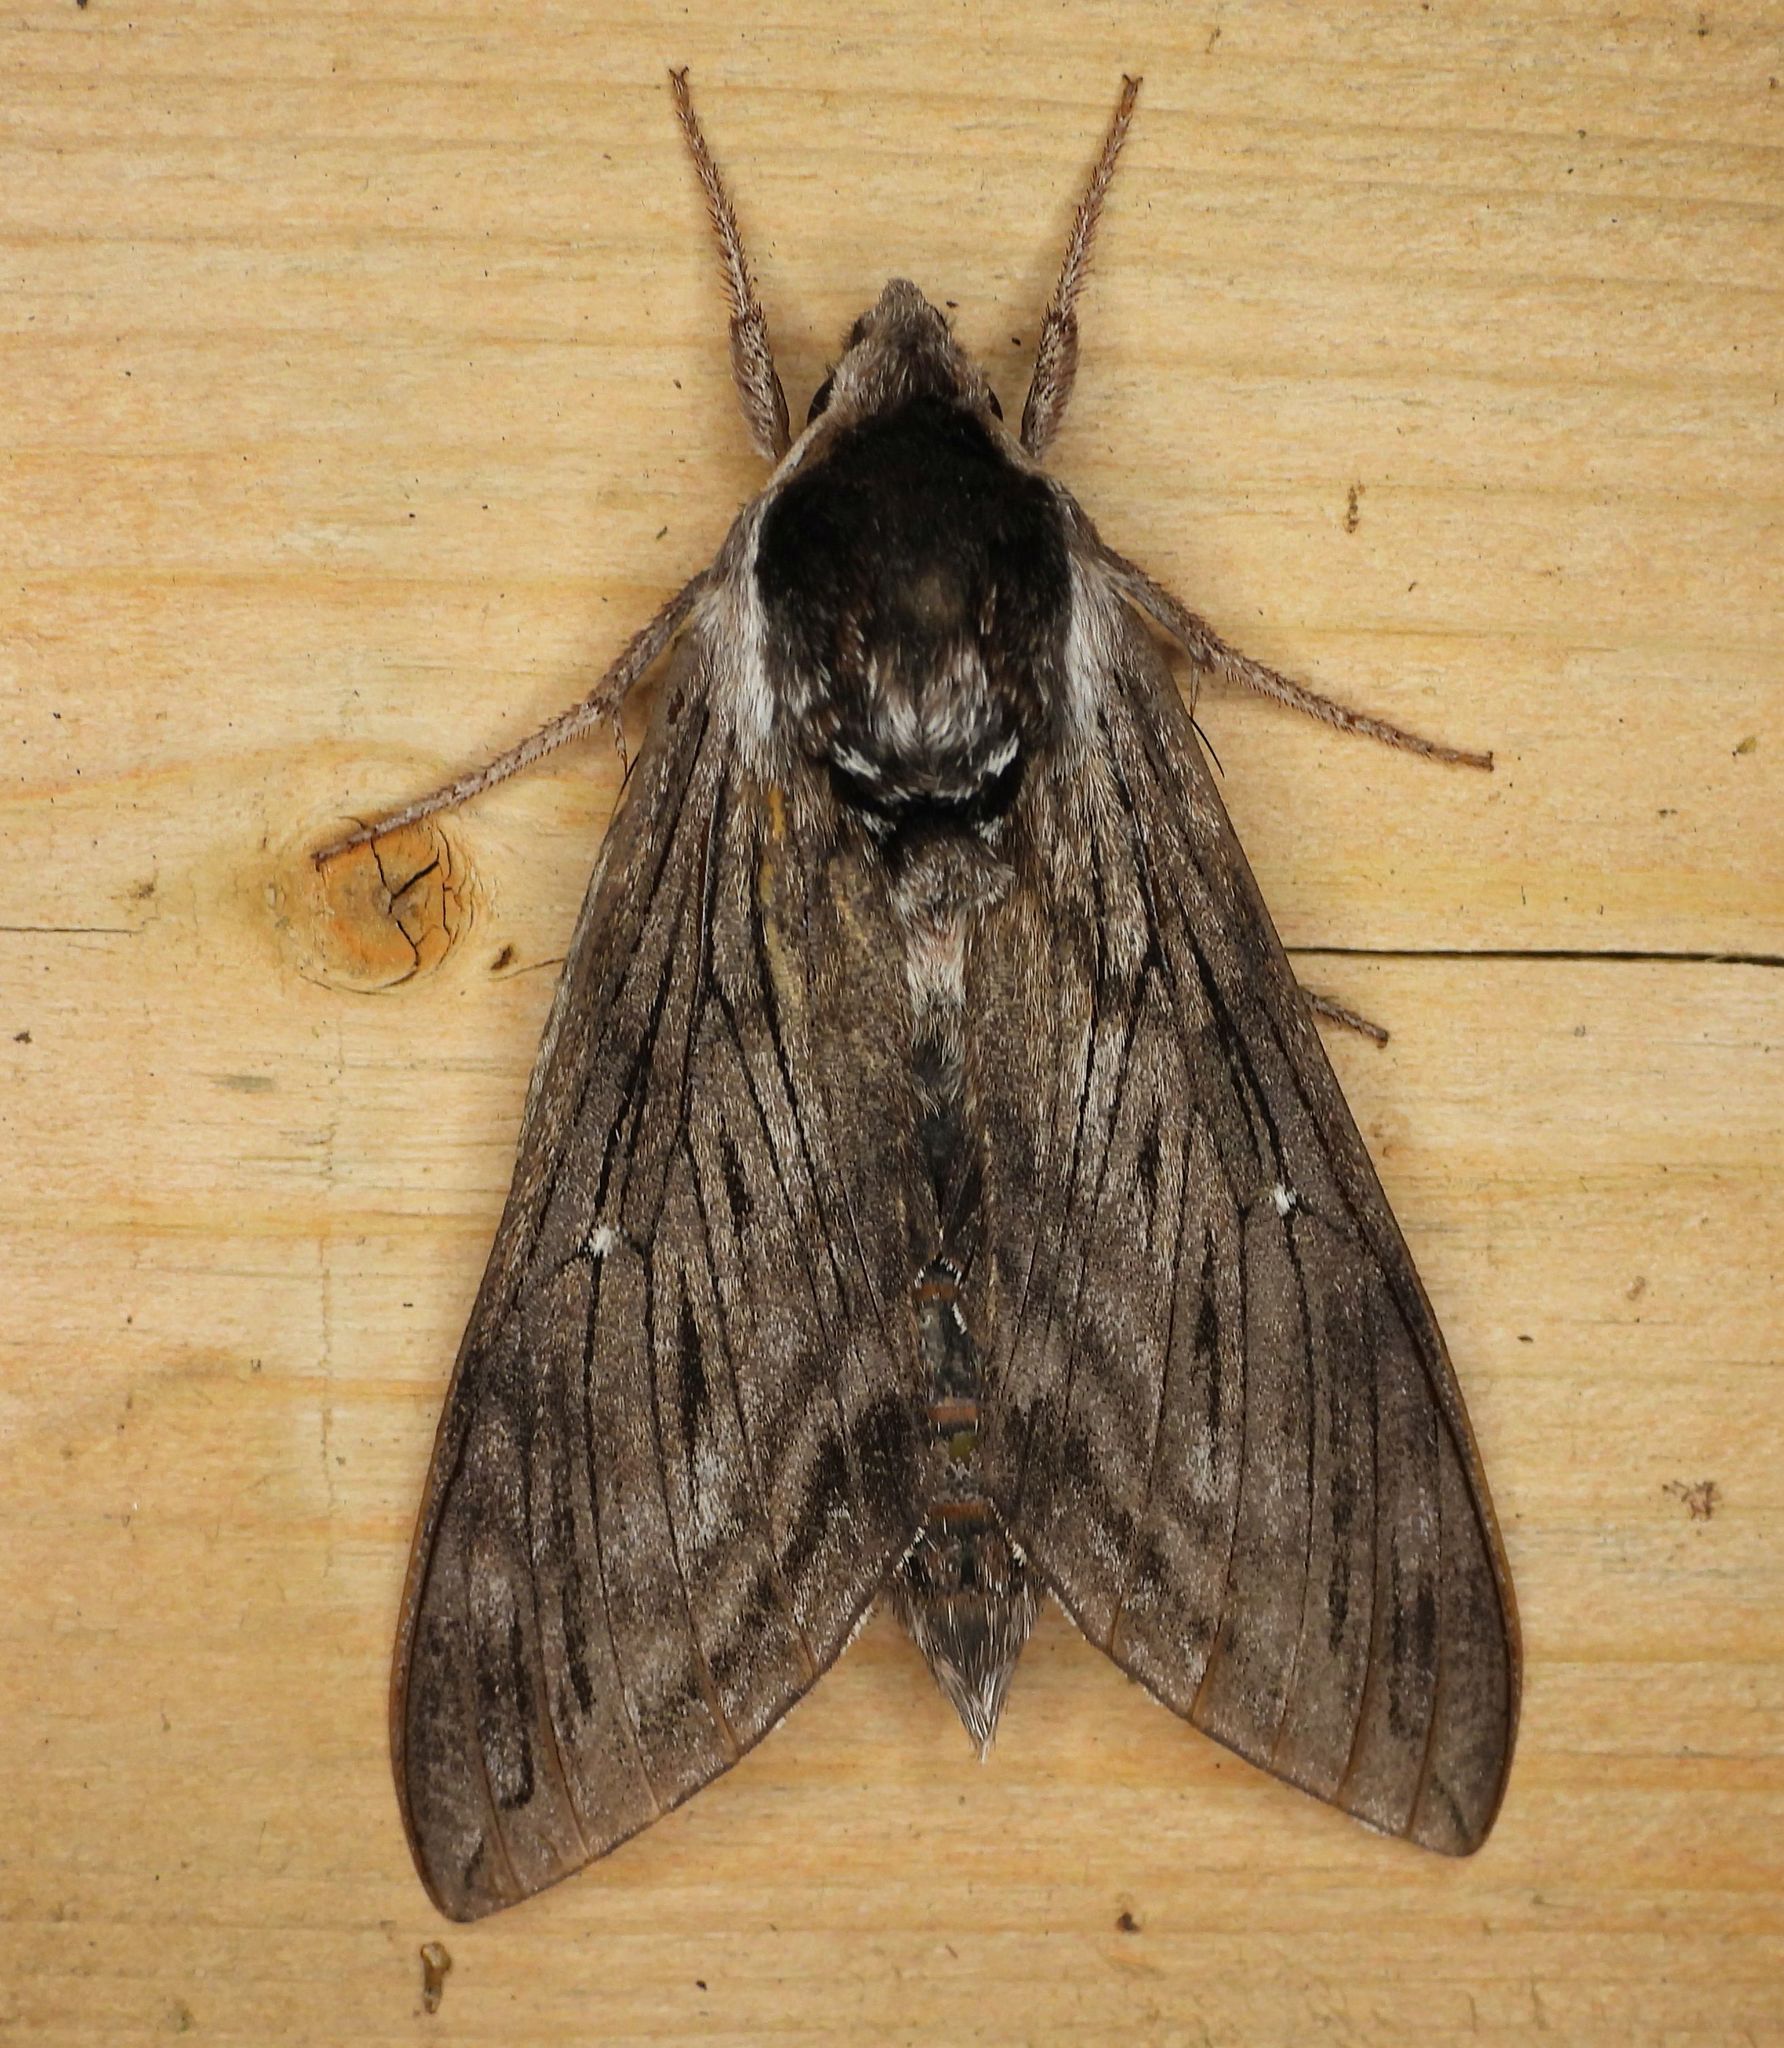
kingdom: Animalia
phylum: Arthropoda
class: Insecta
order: Lepidoptera
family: Sphingidae
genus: Sphinx
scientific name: Sphinx poecila
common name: Northern apple sphinx
